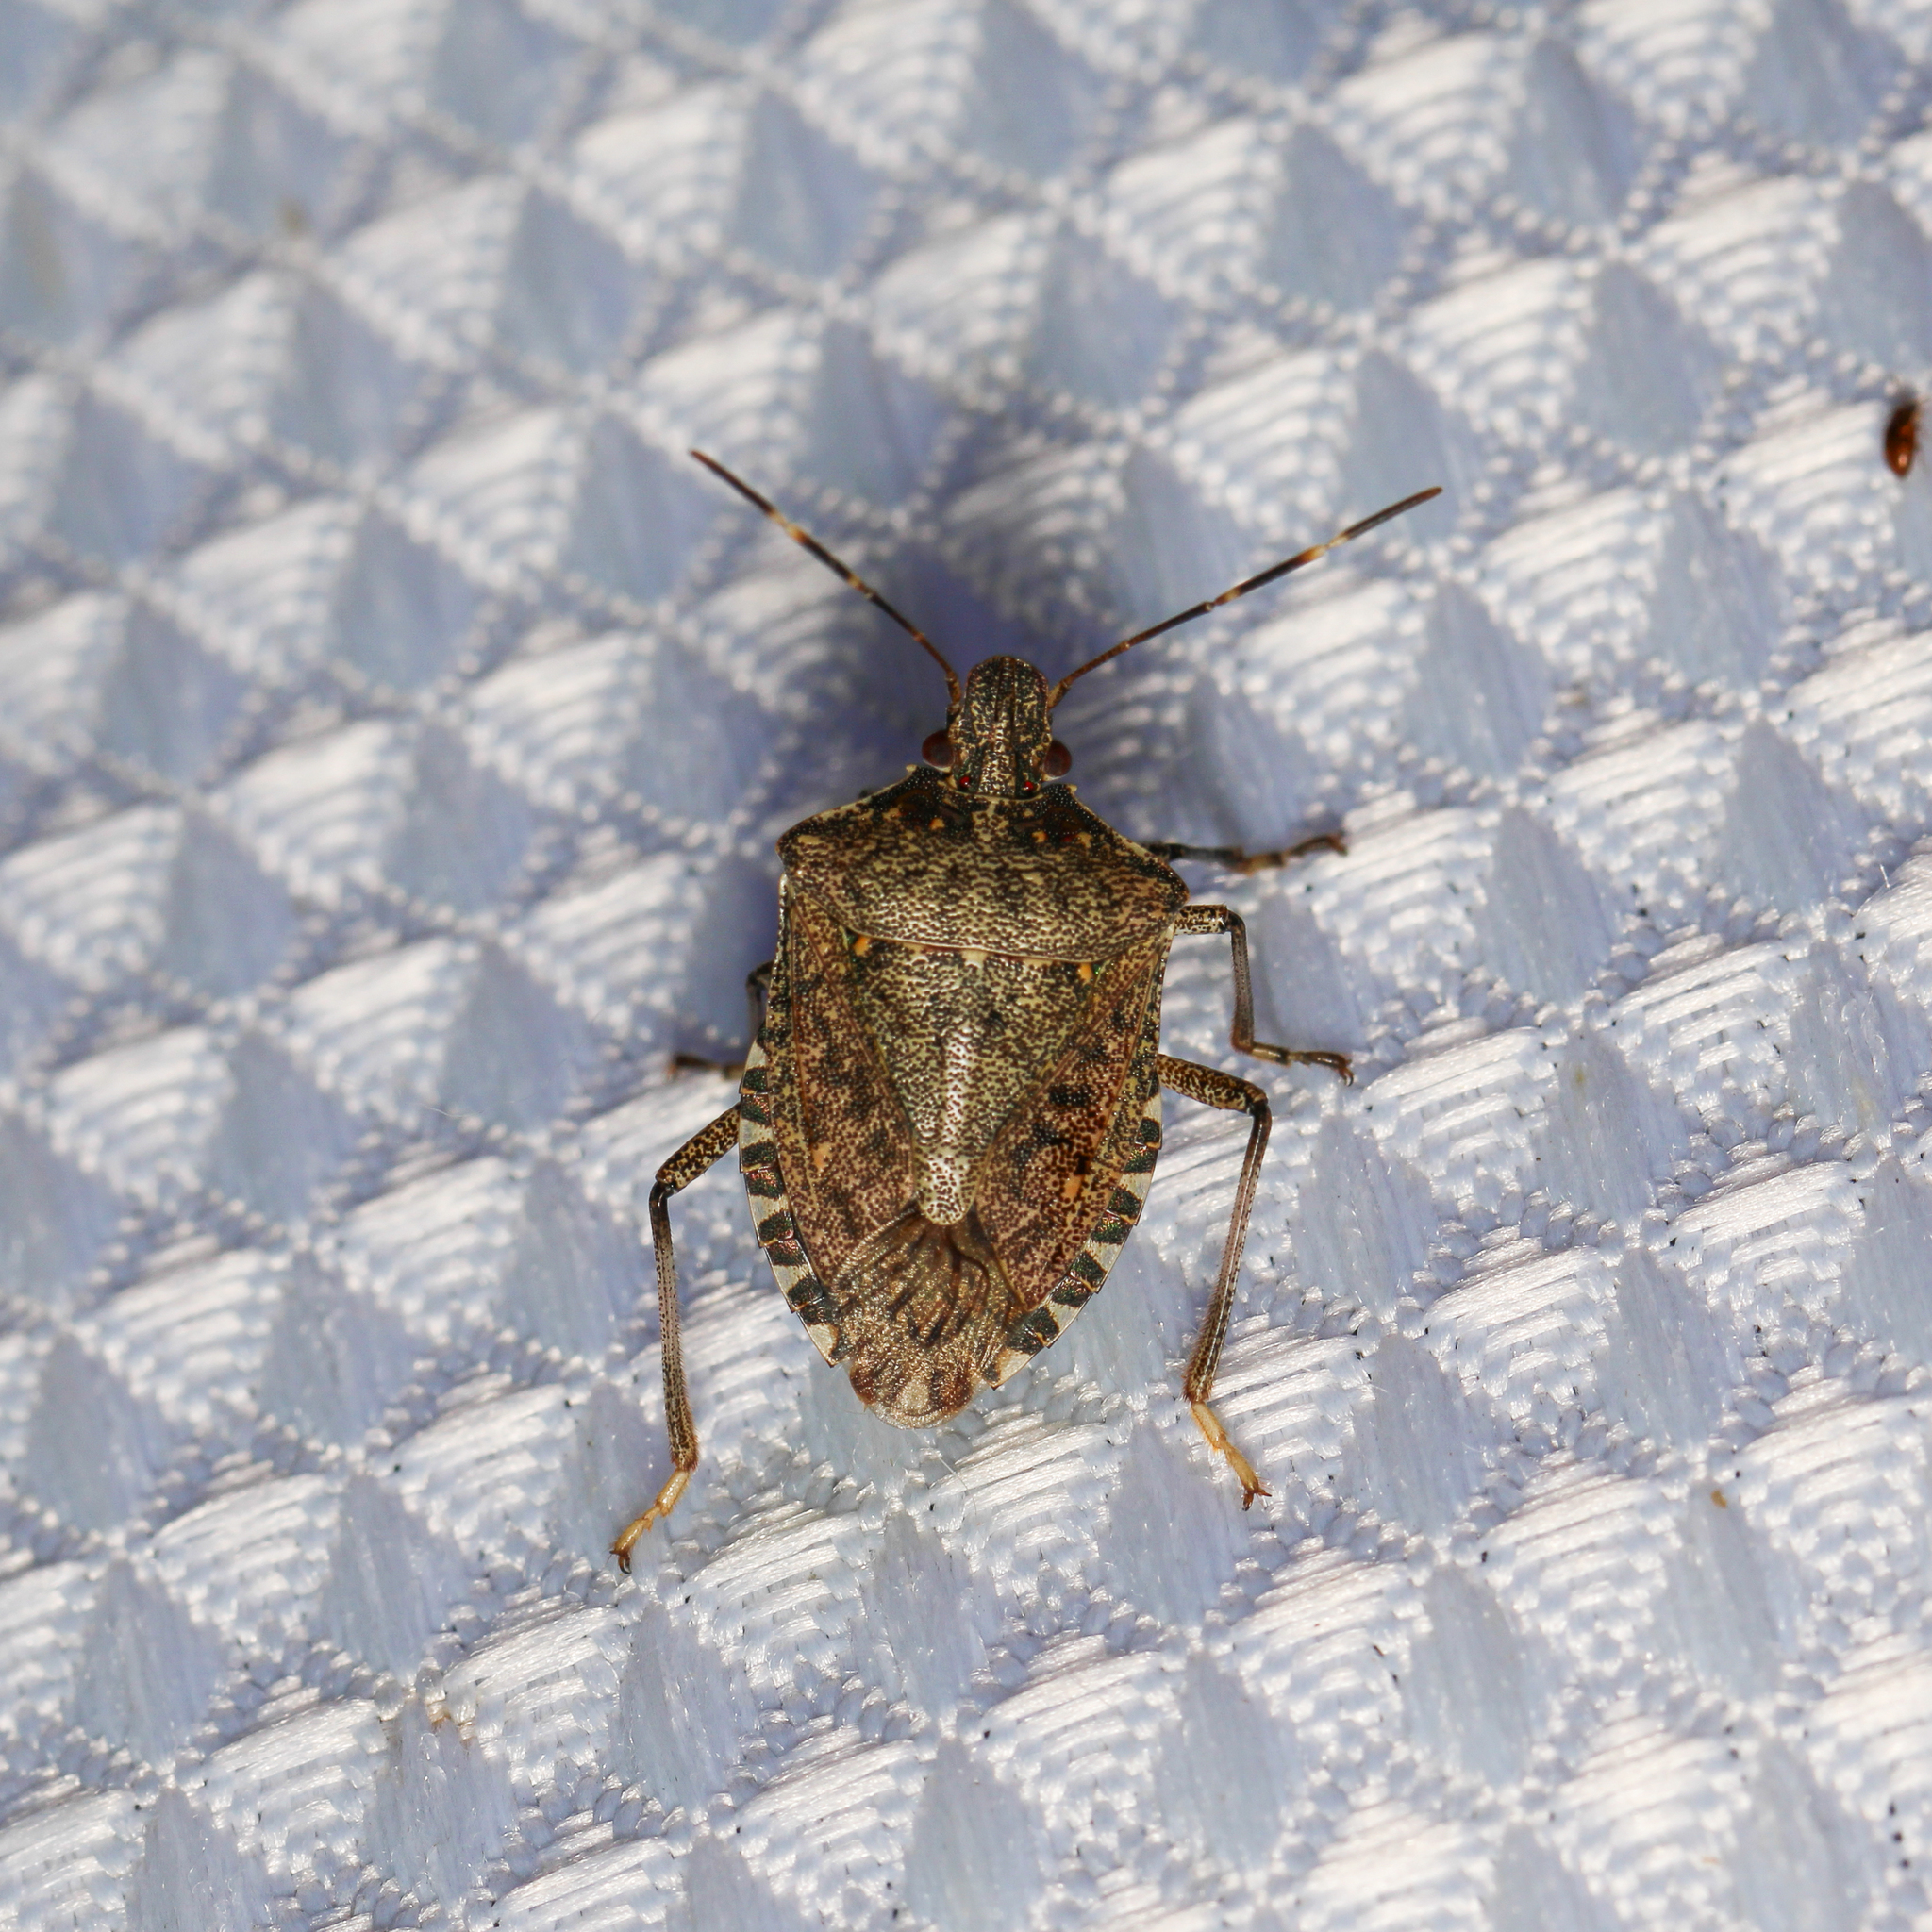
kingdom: Animalia
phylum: Arthropoda
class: Insecta
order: Hemiptera
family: Pentatomidae
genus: Halyomorpha
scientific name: Halyomorpha halys
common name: Brown marmorated stink bug
